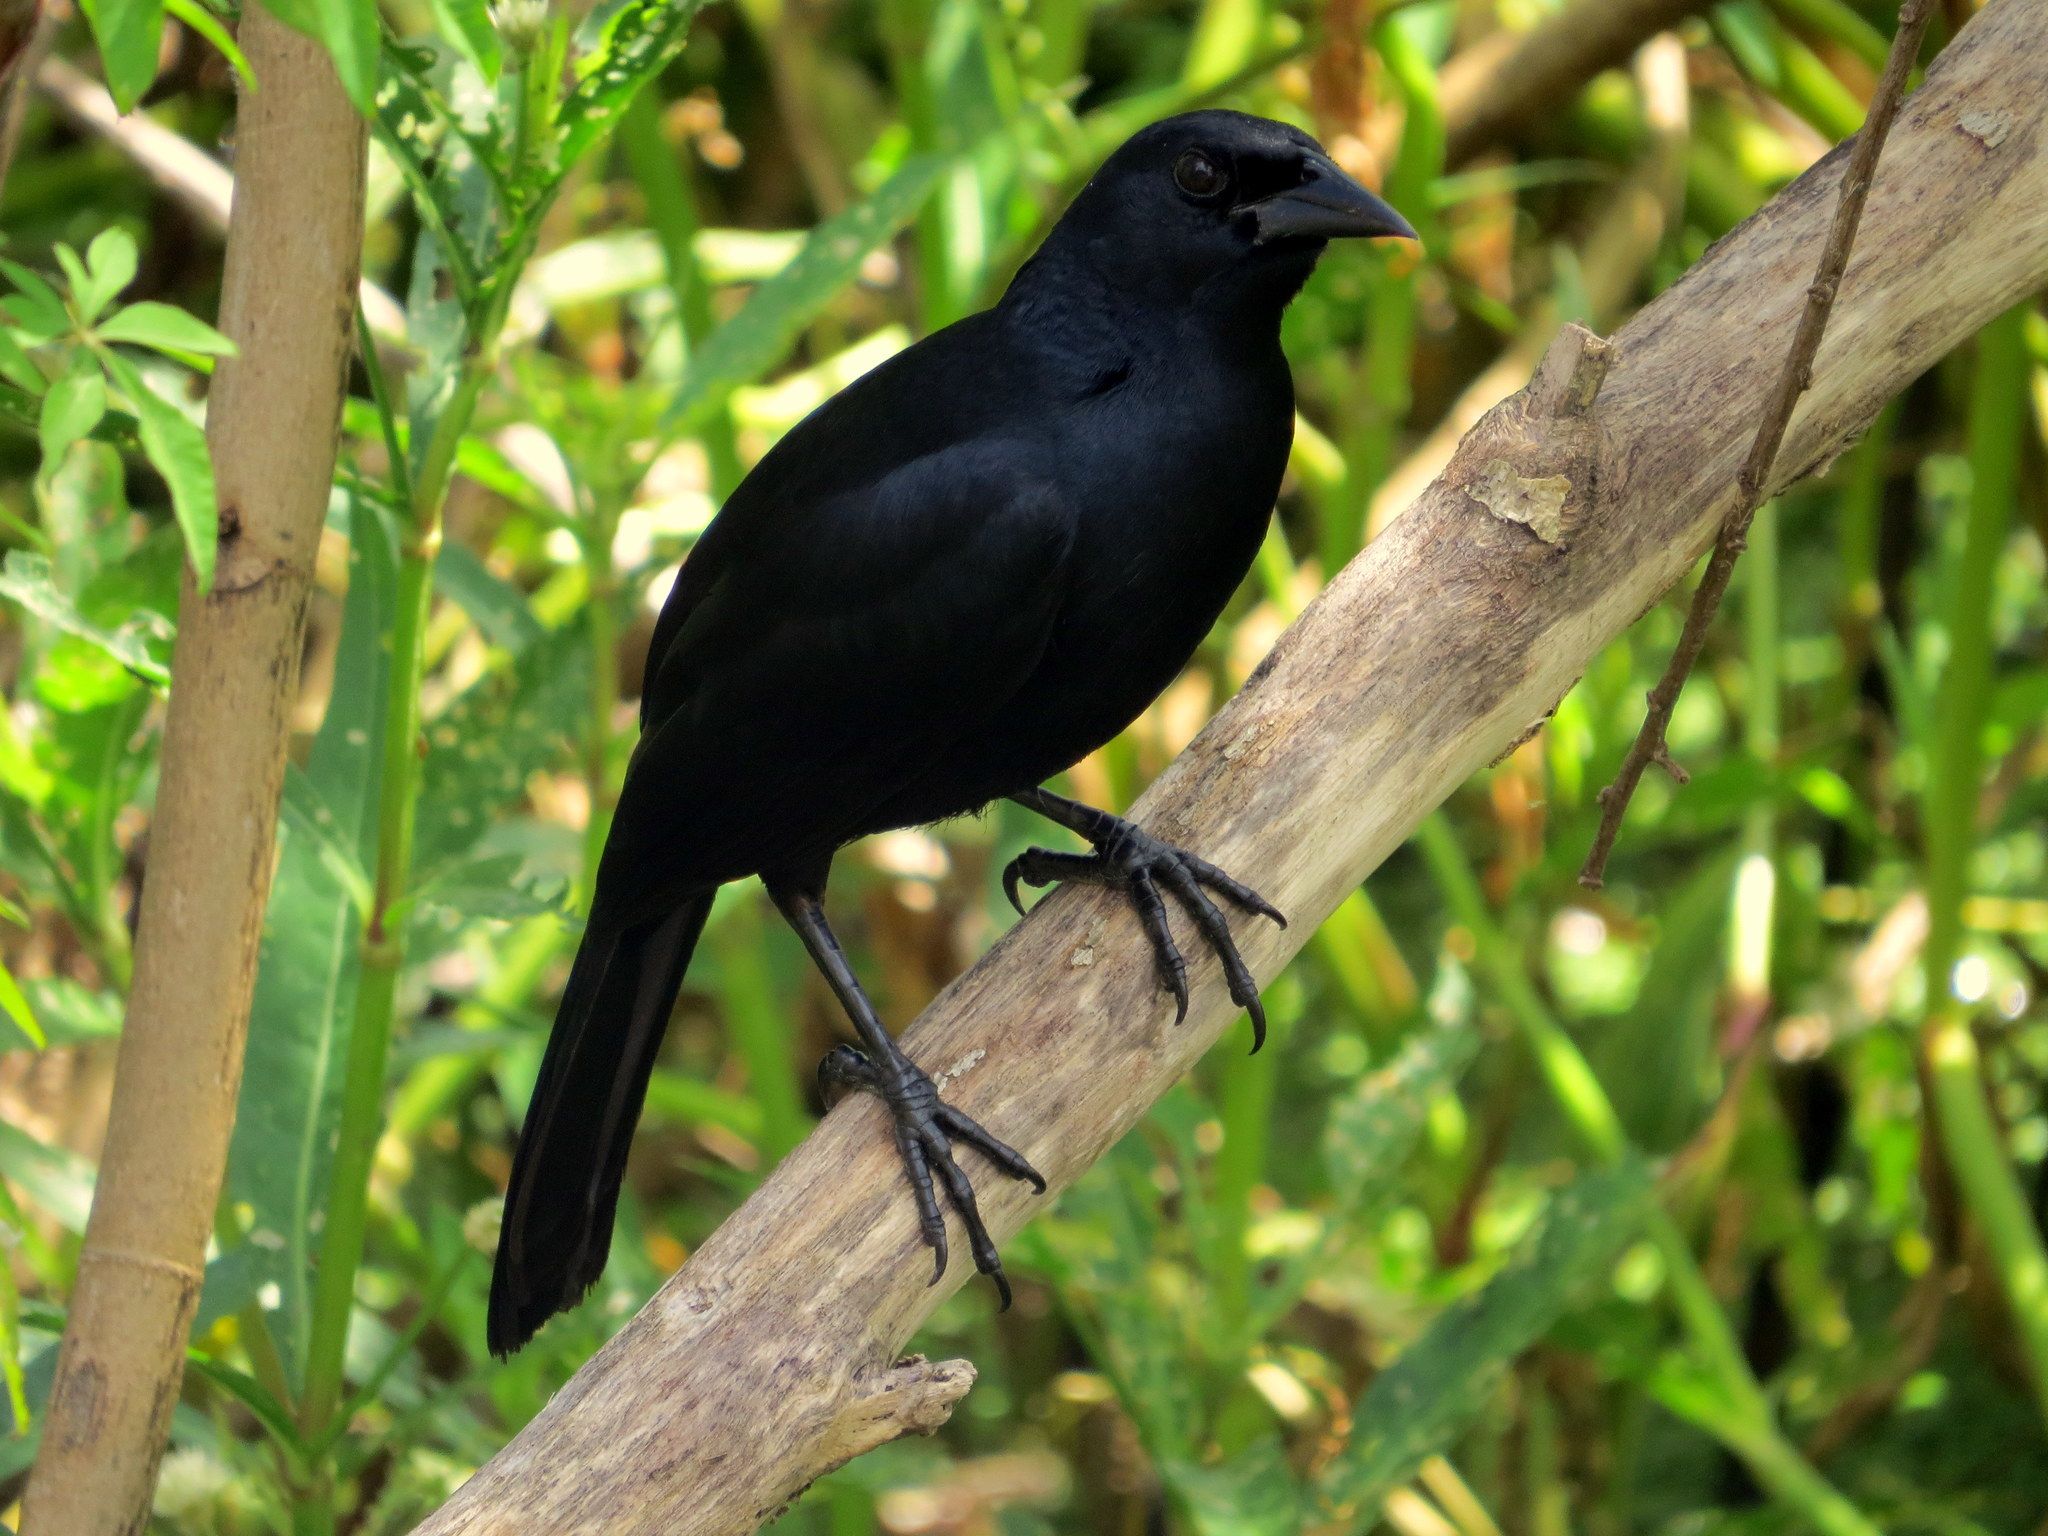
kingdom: Animalia
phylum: Chordata
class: Aves
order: Passeriformes
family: Icteridae
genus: Dives
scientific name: Dives warczewiczi
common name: Scrub blackbird
